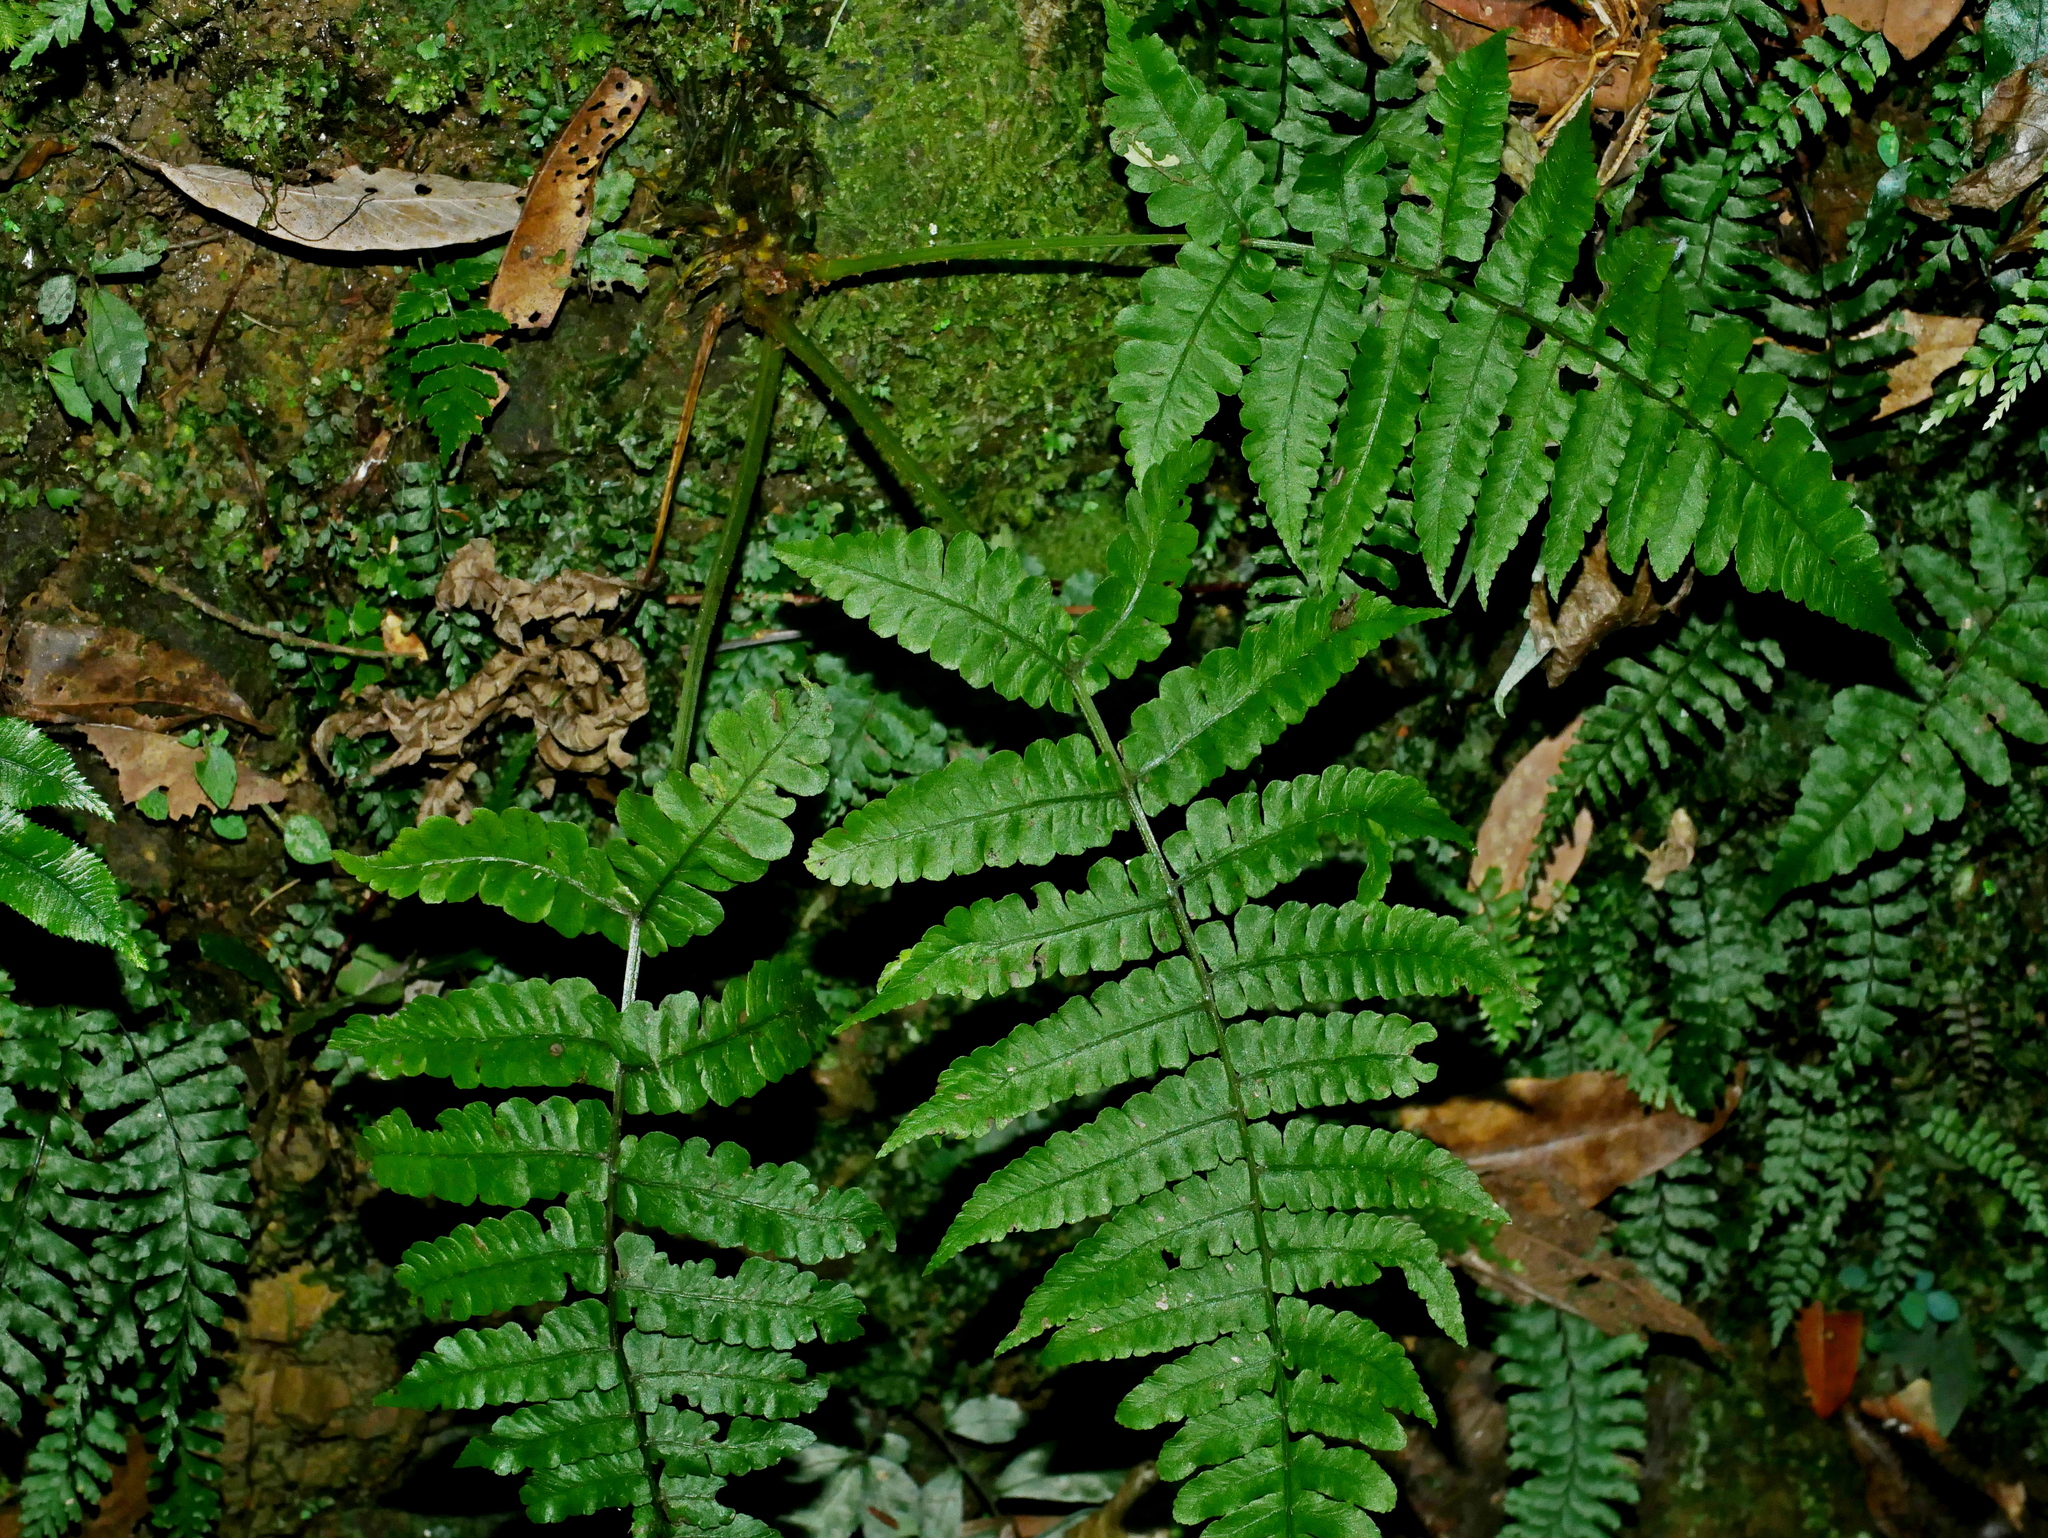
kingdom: Plantae
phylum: Tracheophyta
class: Polypodiopsida
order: Polypodiales
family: Athyriaceae
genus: Cornopteris
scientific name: Cornopteris opaca
